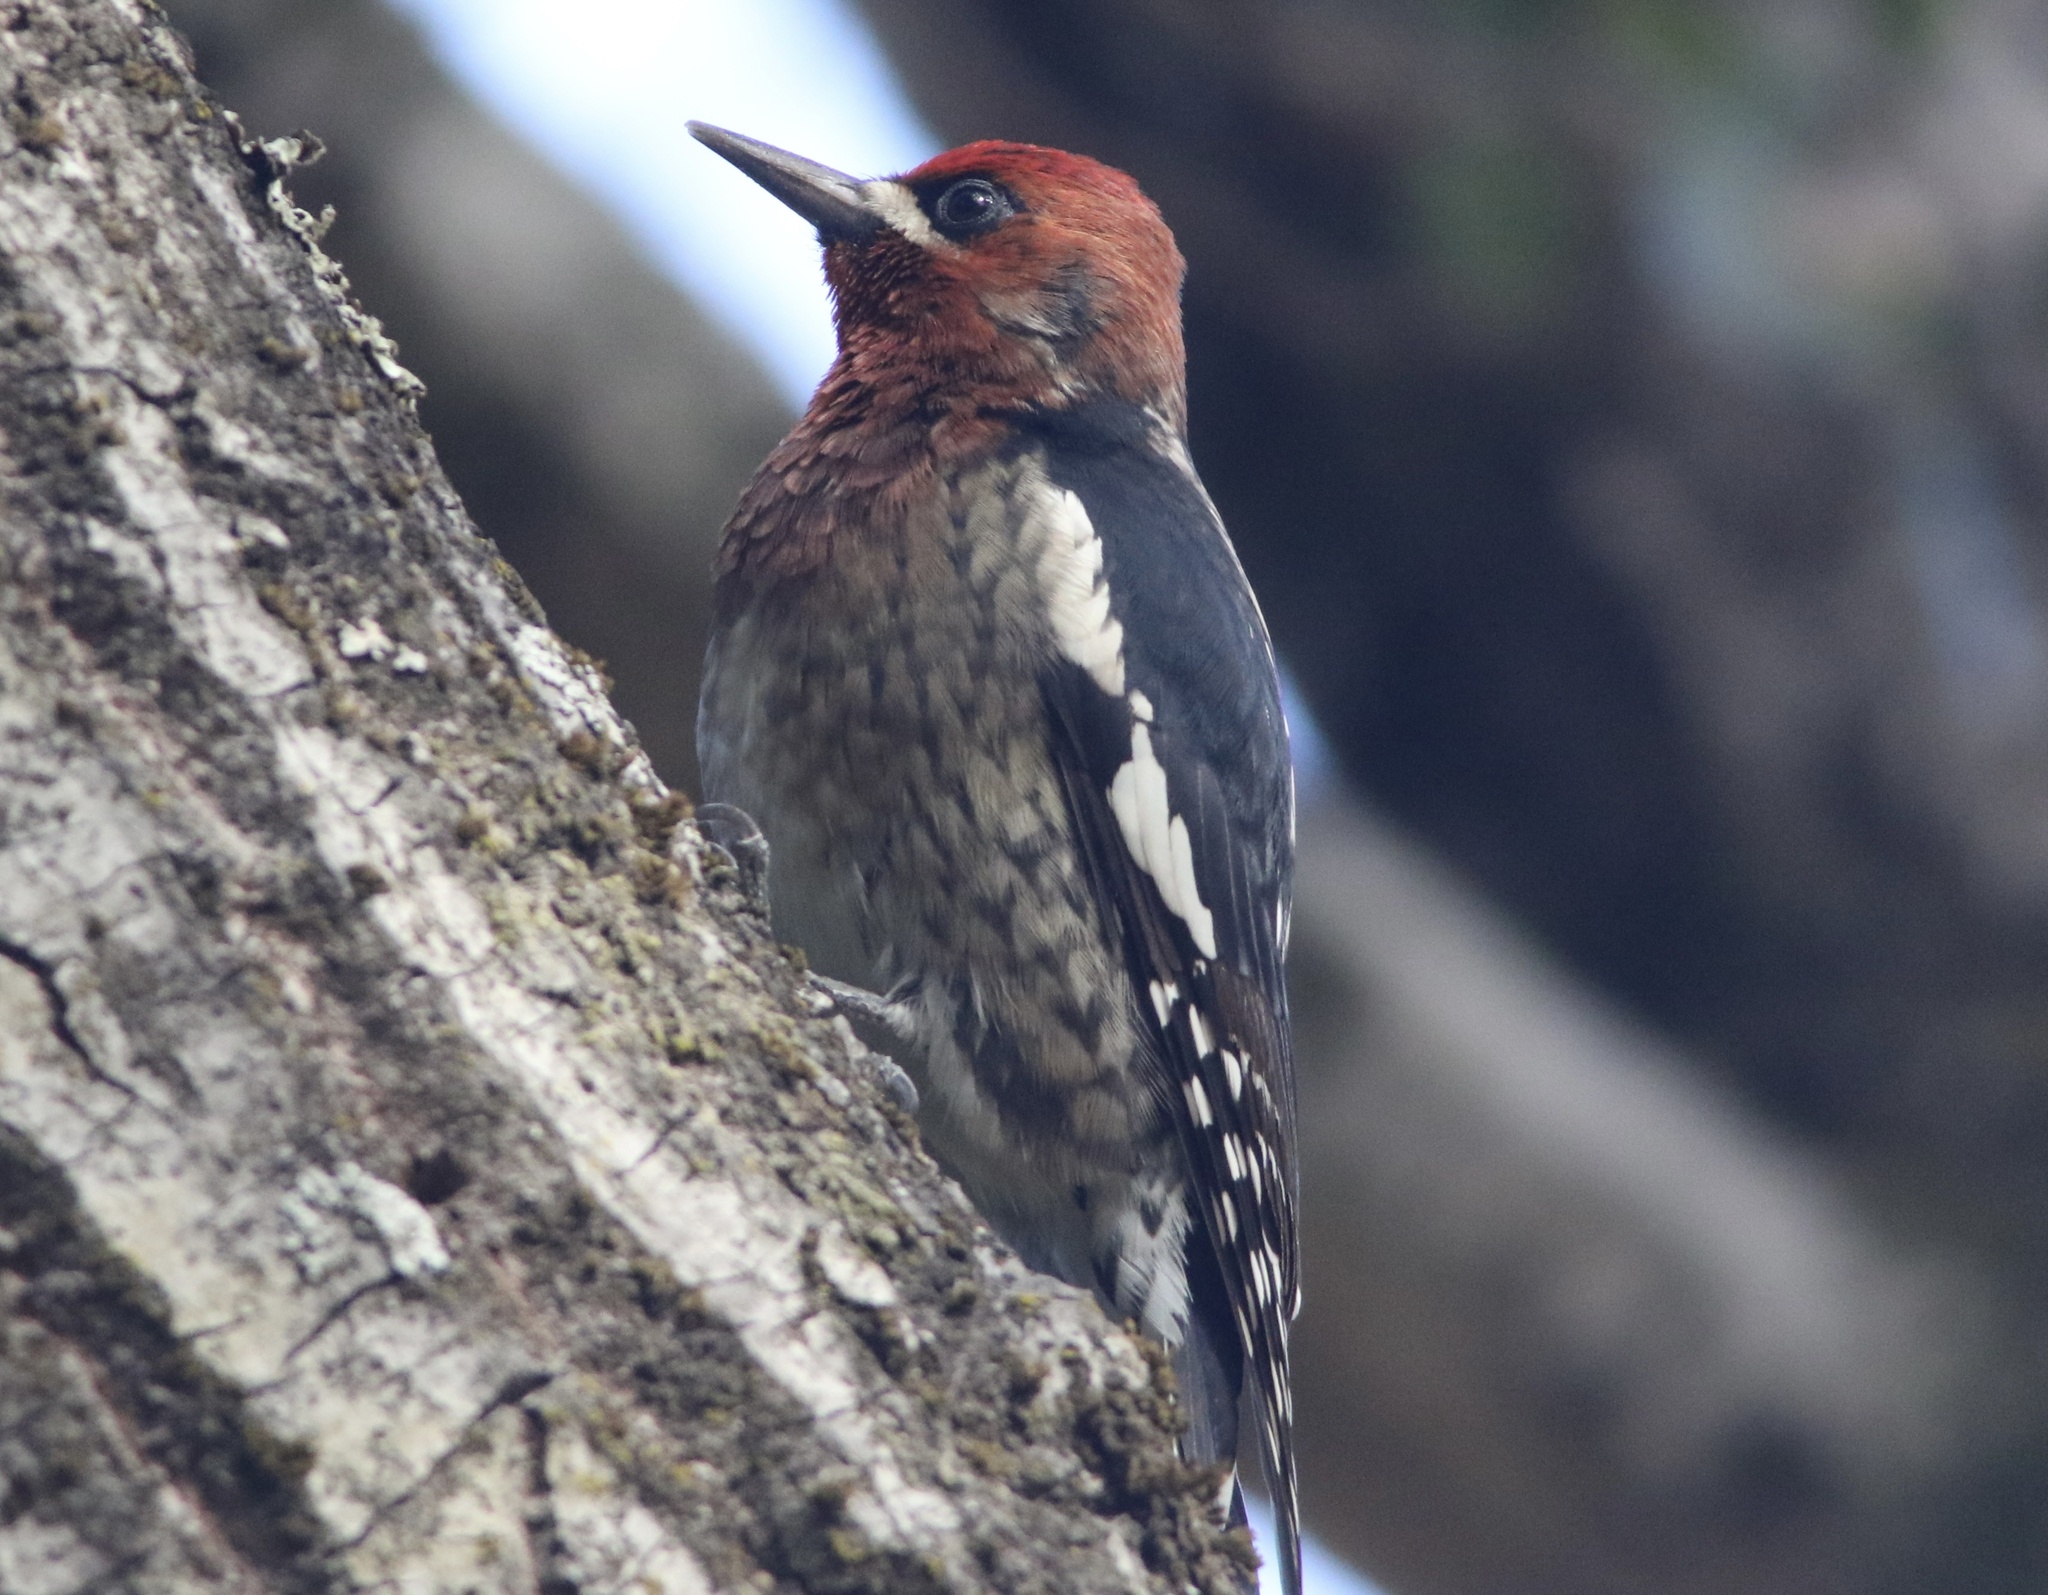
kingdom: Animalia
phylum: Chordata
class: Aves
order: Piciformes
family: Picidae
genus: Sphyrapicus
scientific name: Sphyrapicus ruber
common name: Red-breasted sapsucker
